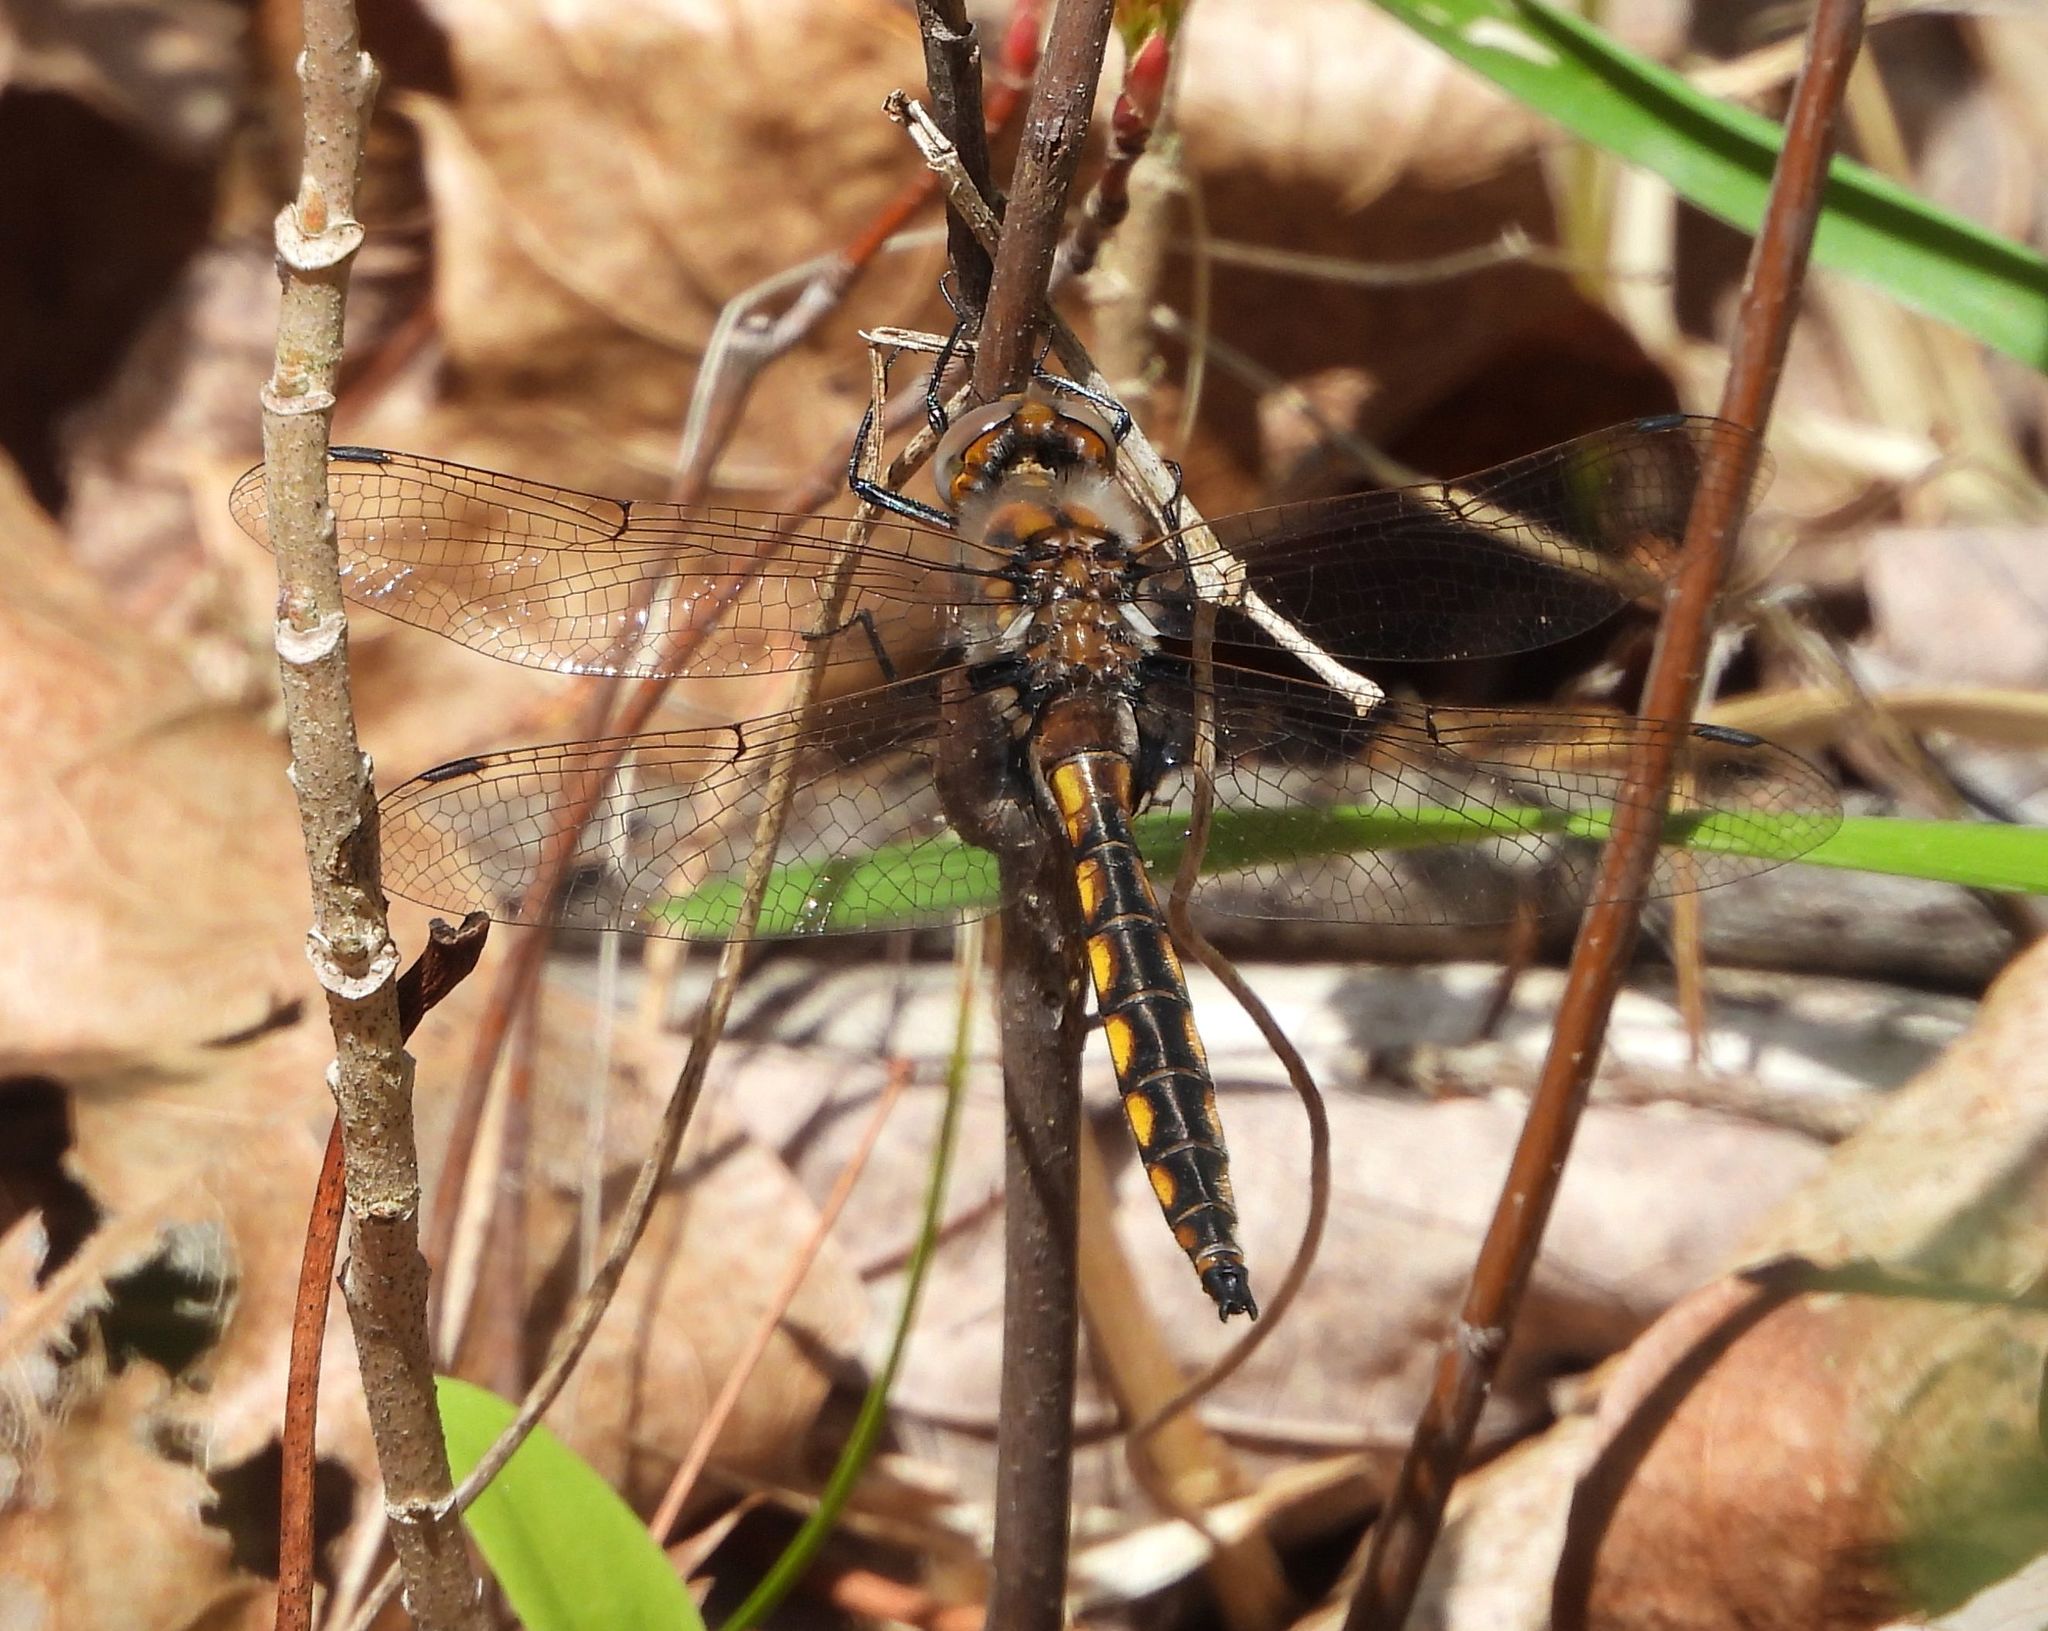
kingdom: Animalia
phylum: Arthropoda
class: Insecta
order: Odonata
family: Corduliidae
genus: Epitheca
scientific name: Epitheca canis
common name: Beaverpond baskettail
